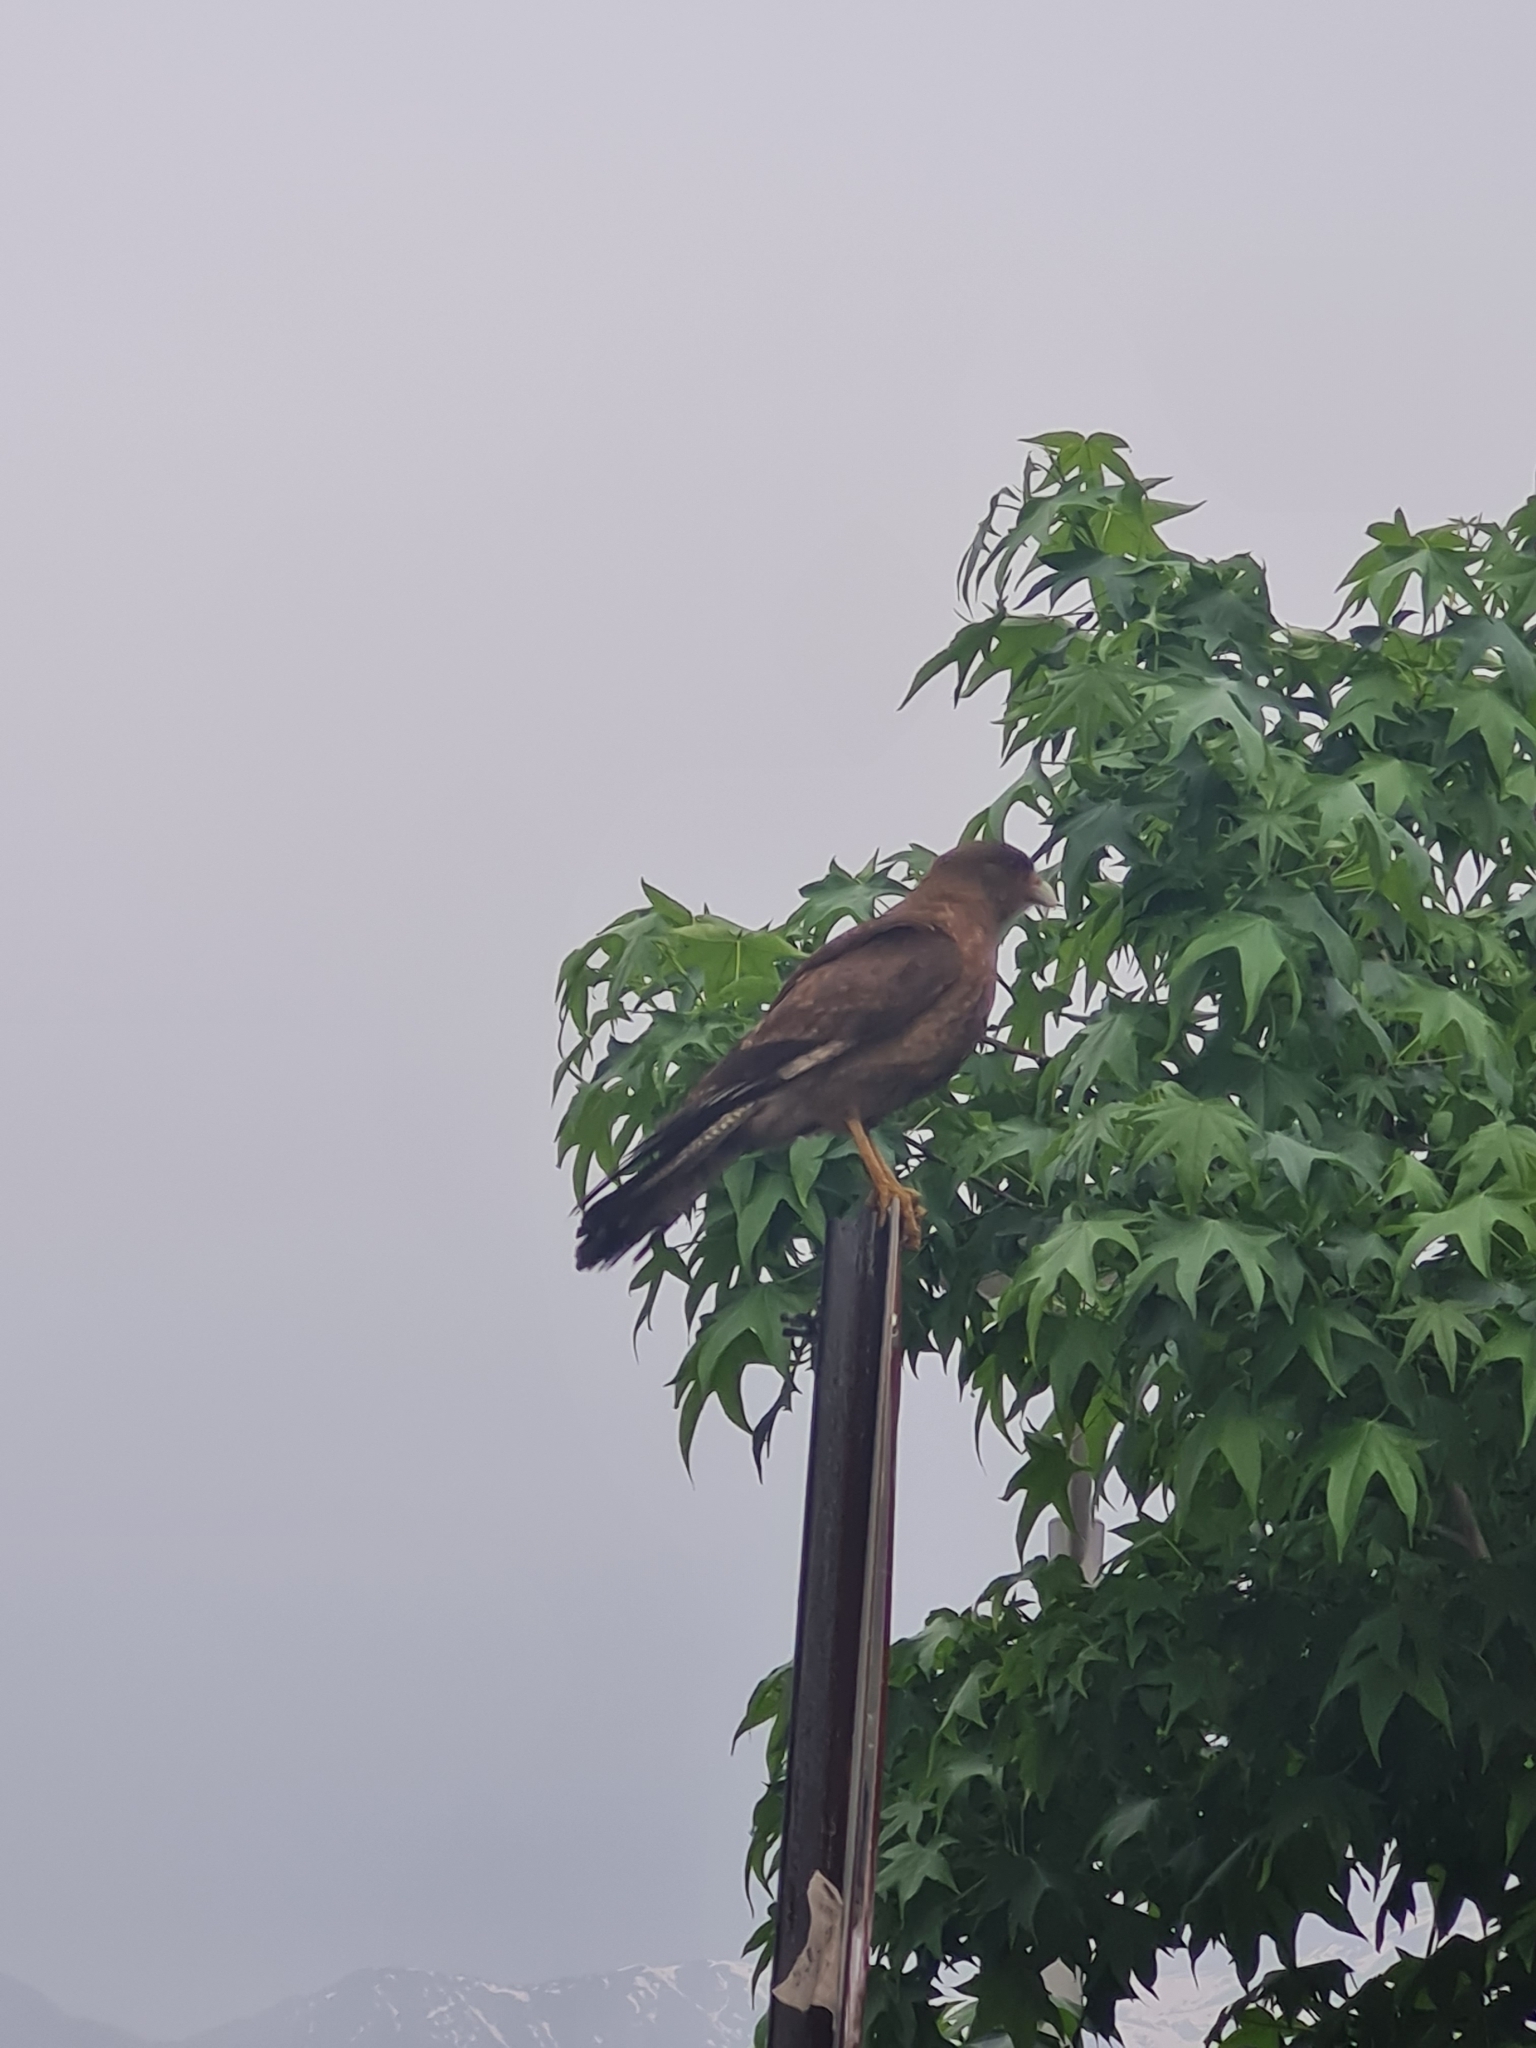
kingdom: Animalia
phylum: Chordata
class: Aves
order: Falconiformes
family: Falconidae
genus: Daptrius
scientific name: Daptrius
